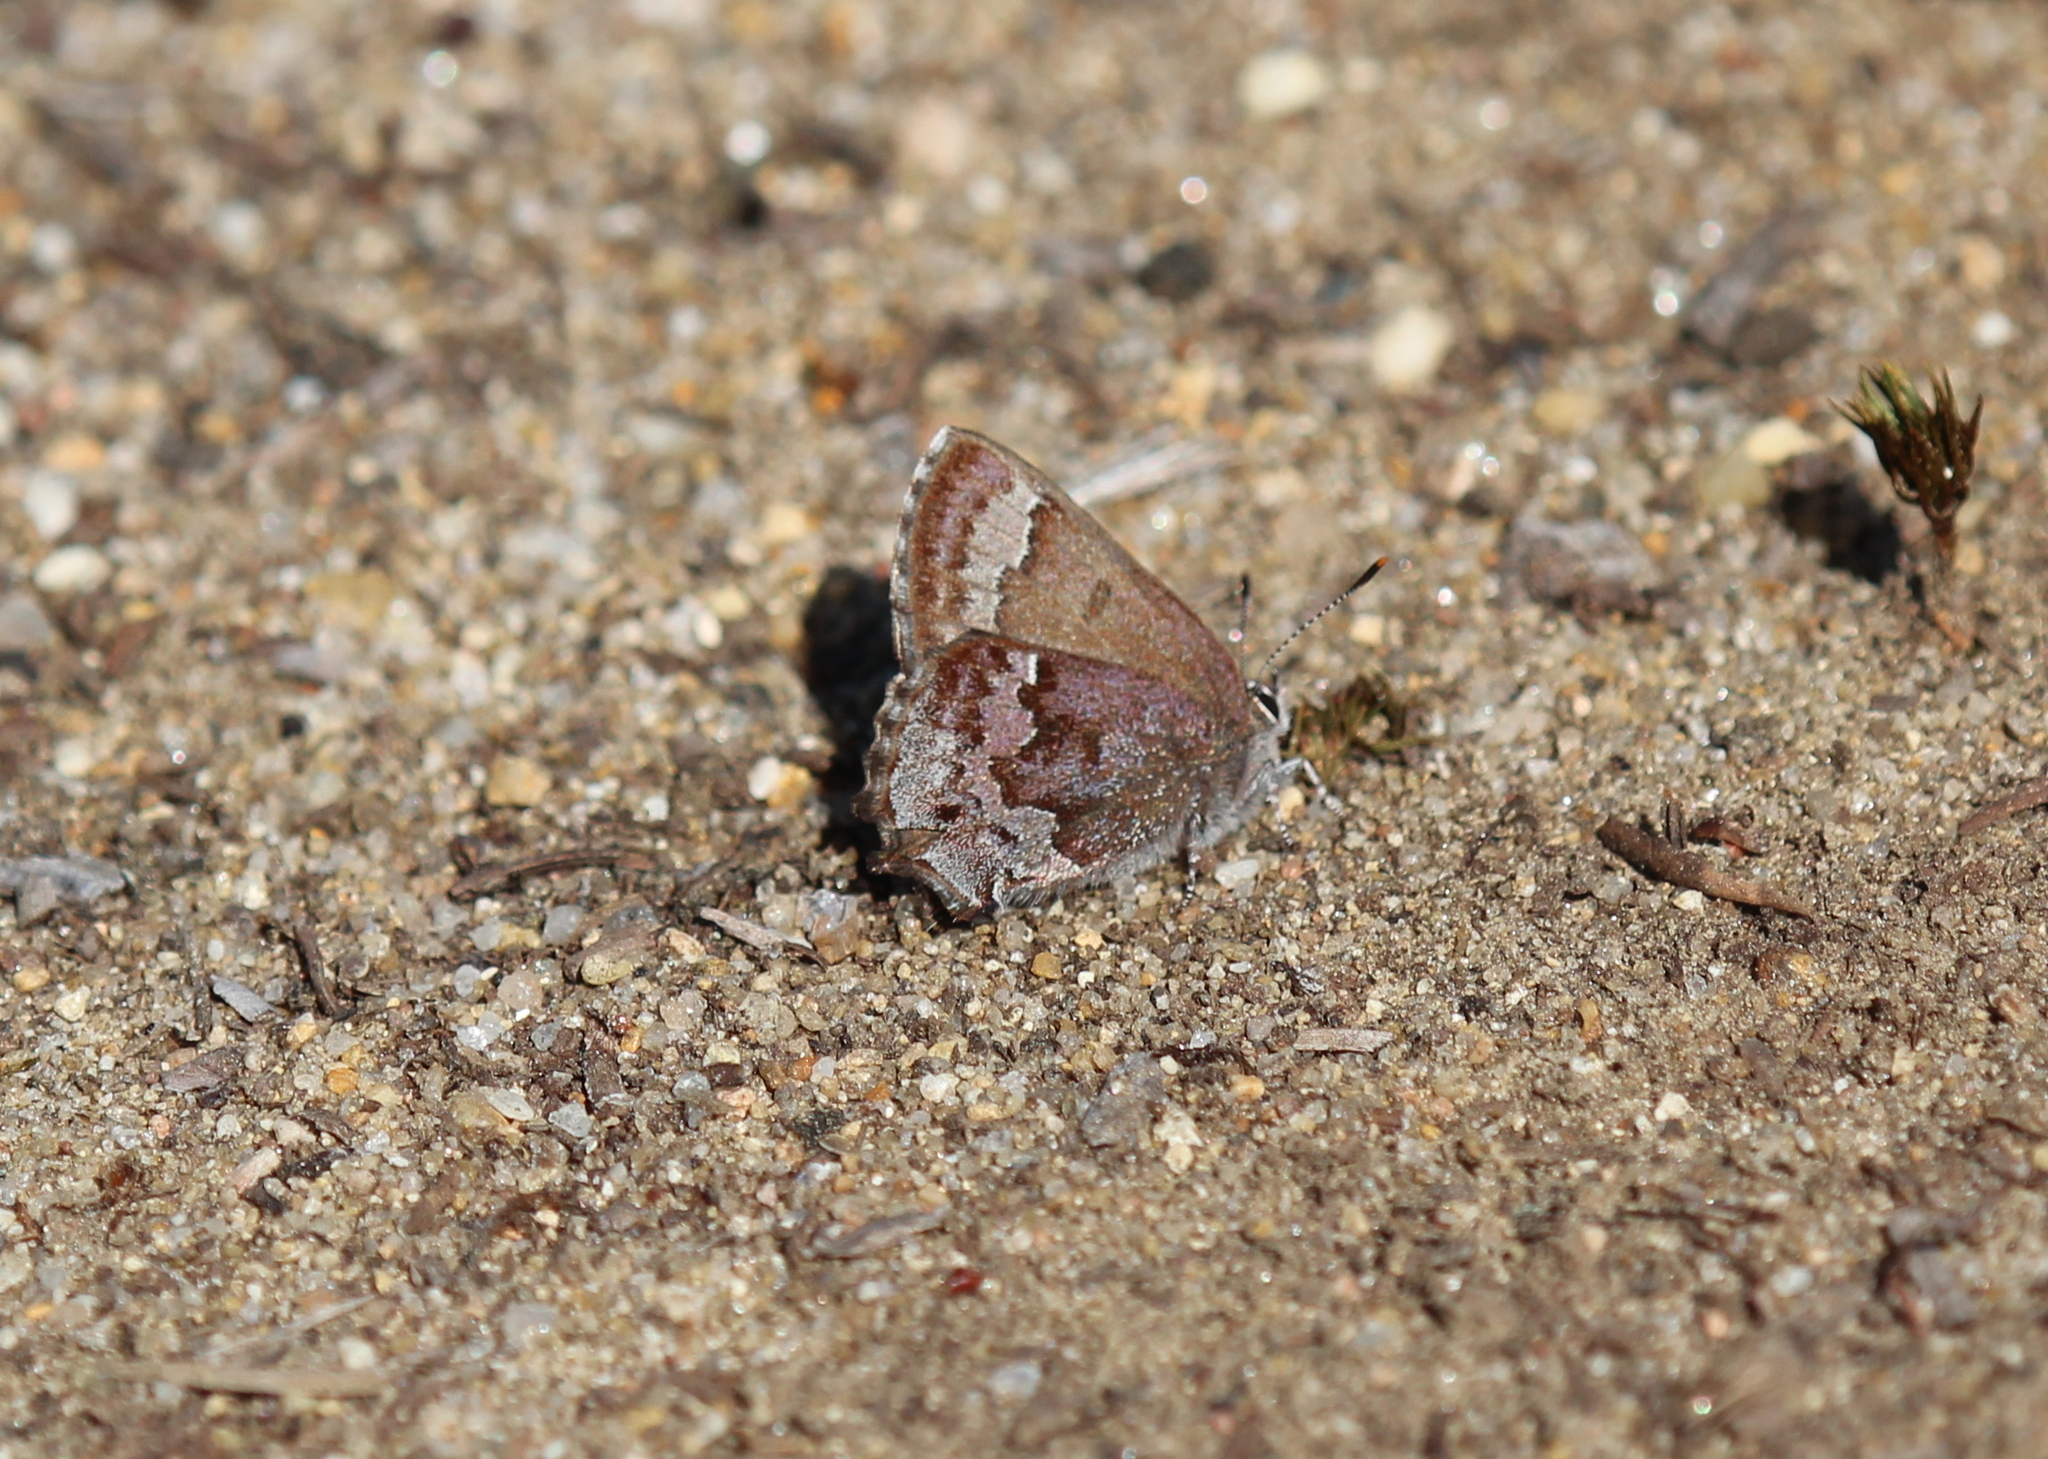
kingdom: Animalia
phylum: Arthropoda
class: Insecta
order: Lepidoptera
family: Lycaenidae
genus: Thecla
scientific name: Thecla irus
